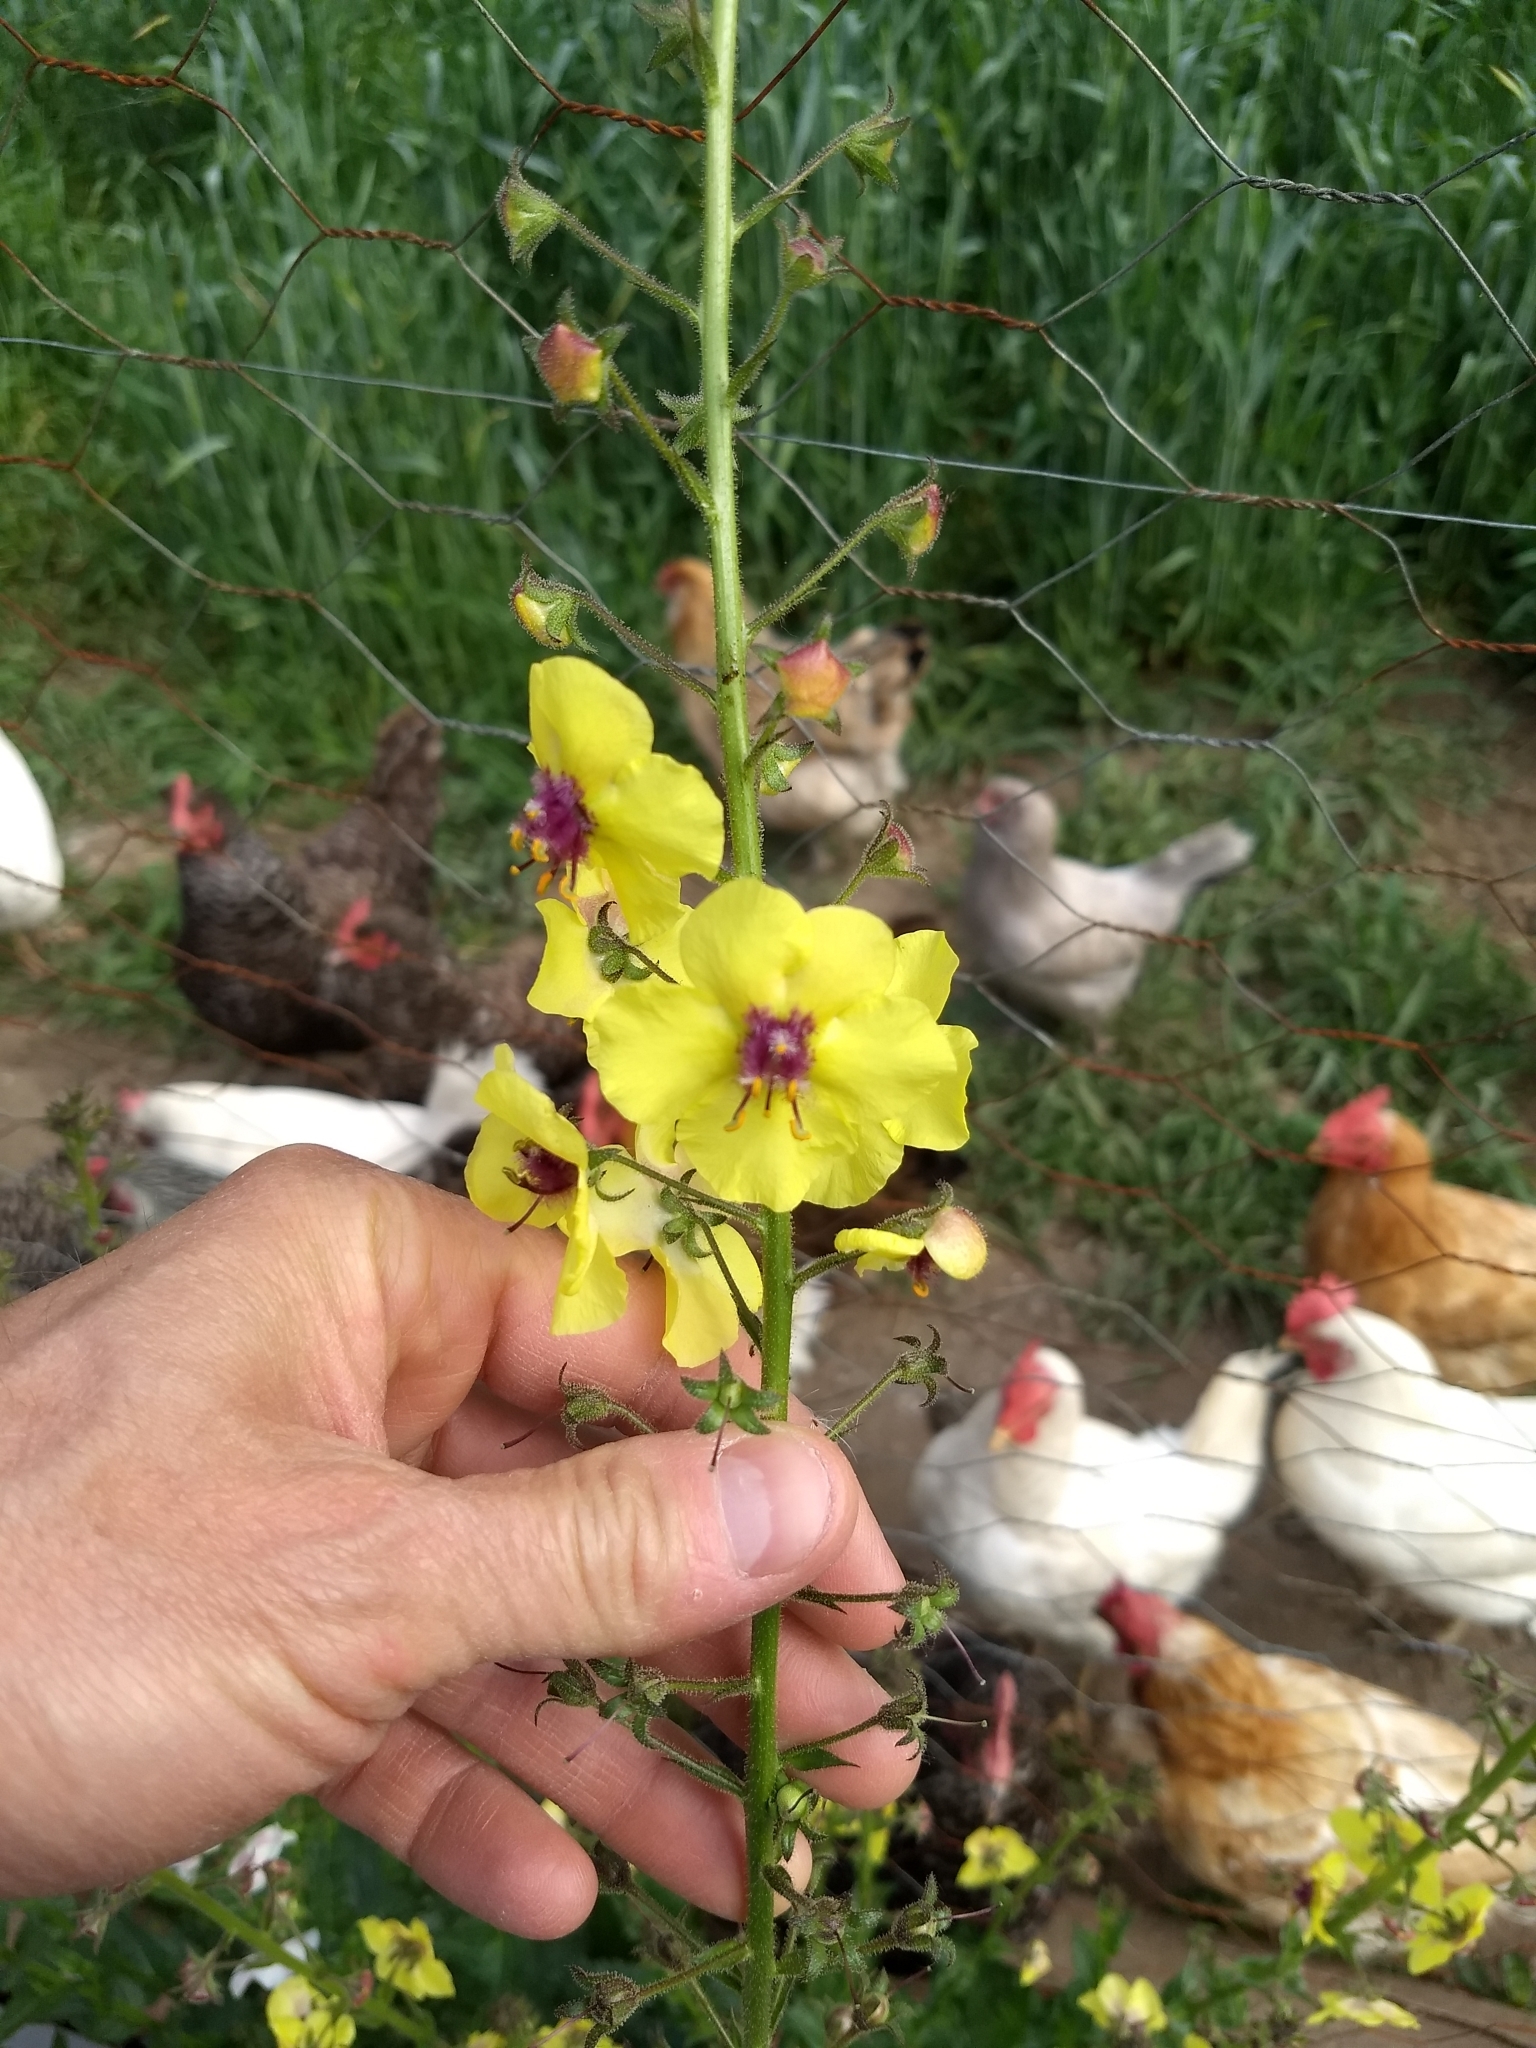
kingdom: Plantae
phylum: Tracheophyta
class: Magnoliopsida
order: Lamiales
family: Scrophulariaceae
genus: Verbascum
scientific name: Verbascum blattaria
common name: Moth mullein
